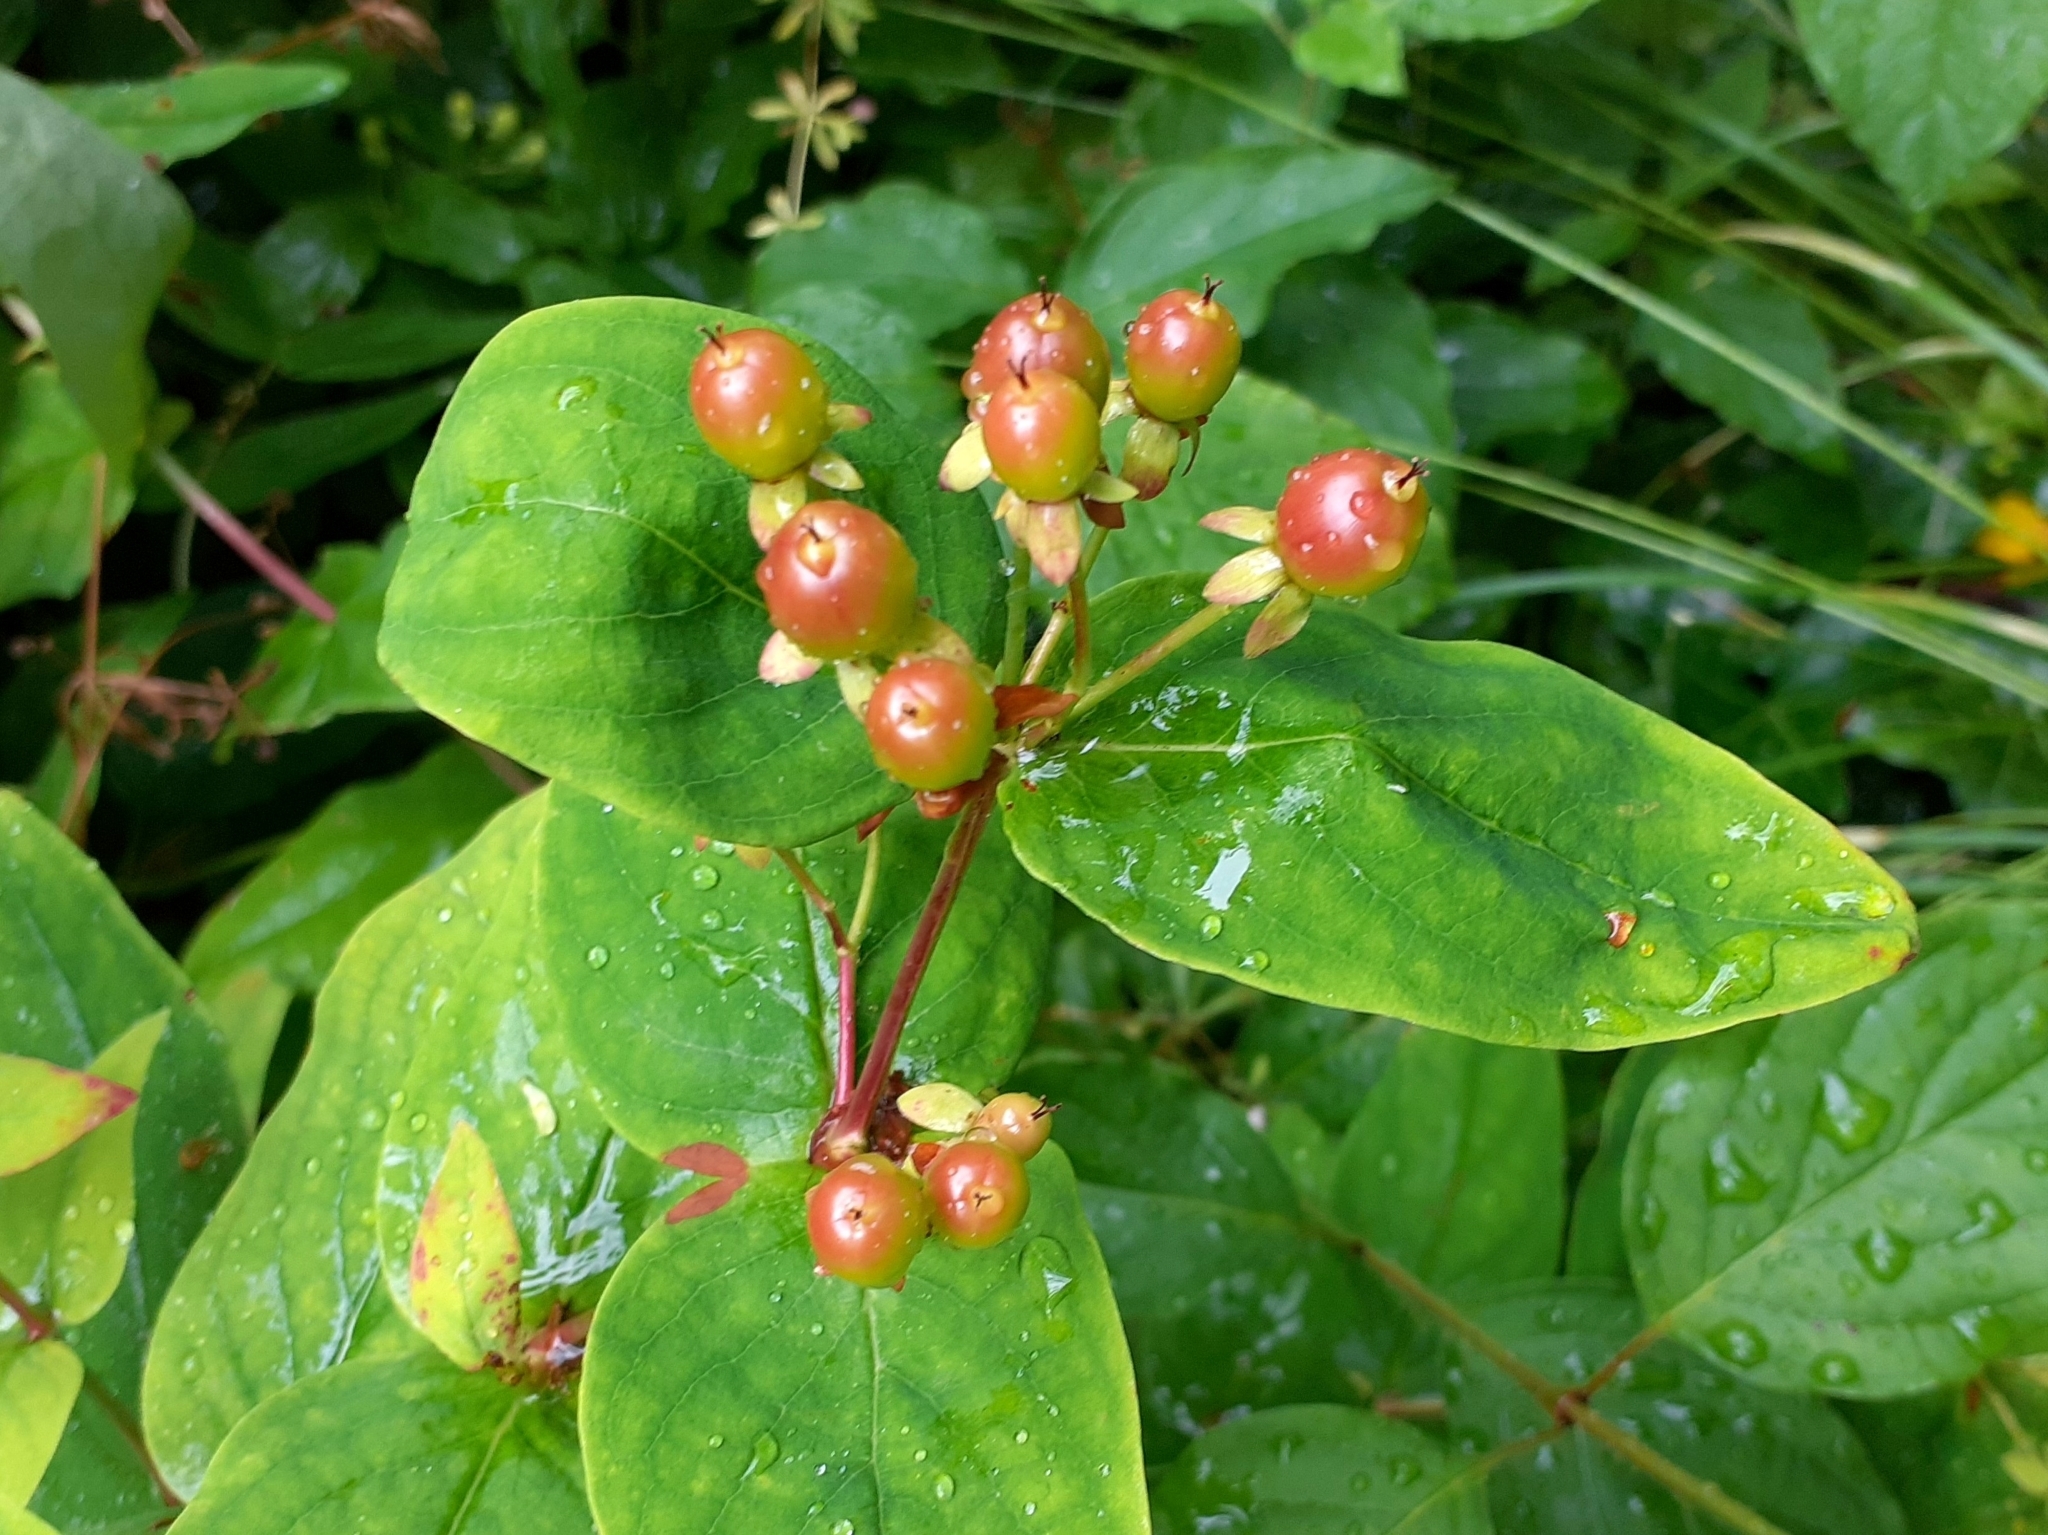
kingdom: Plantae
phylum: Tracheophyta
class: Magnoliopsida
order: Malpighiales
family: Hypericaceae
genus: Hypericum
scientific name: Hypericum androsaemum
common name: Sweet-amber
